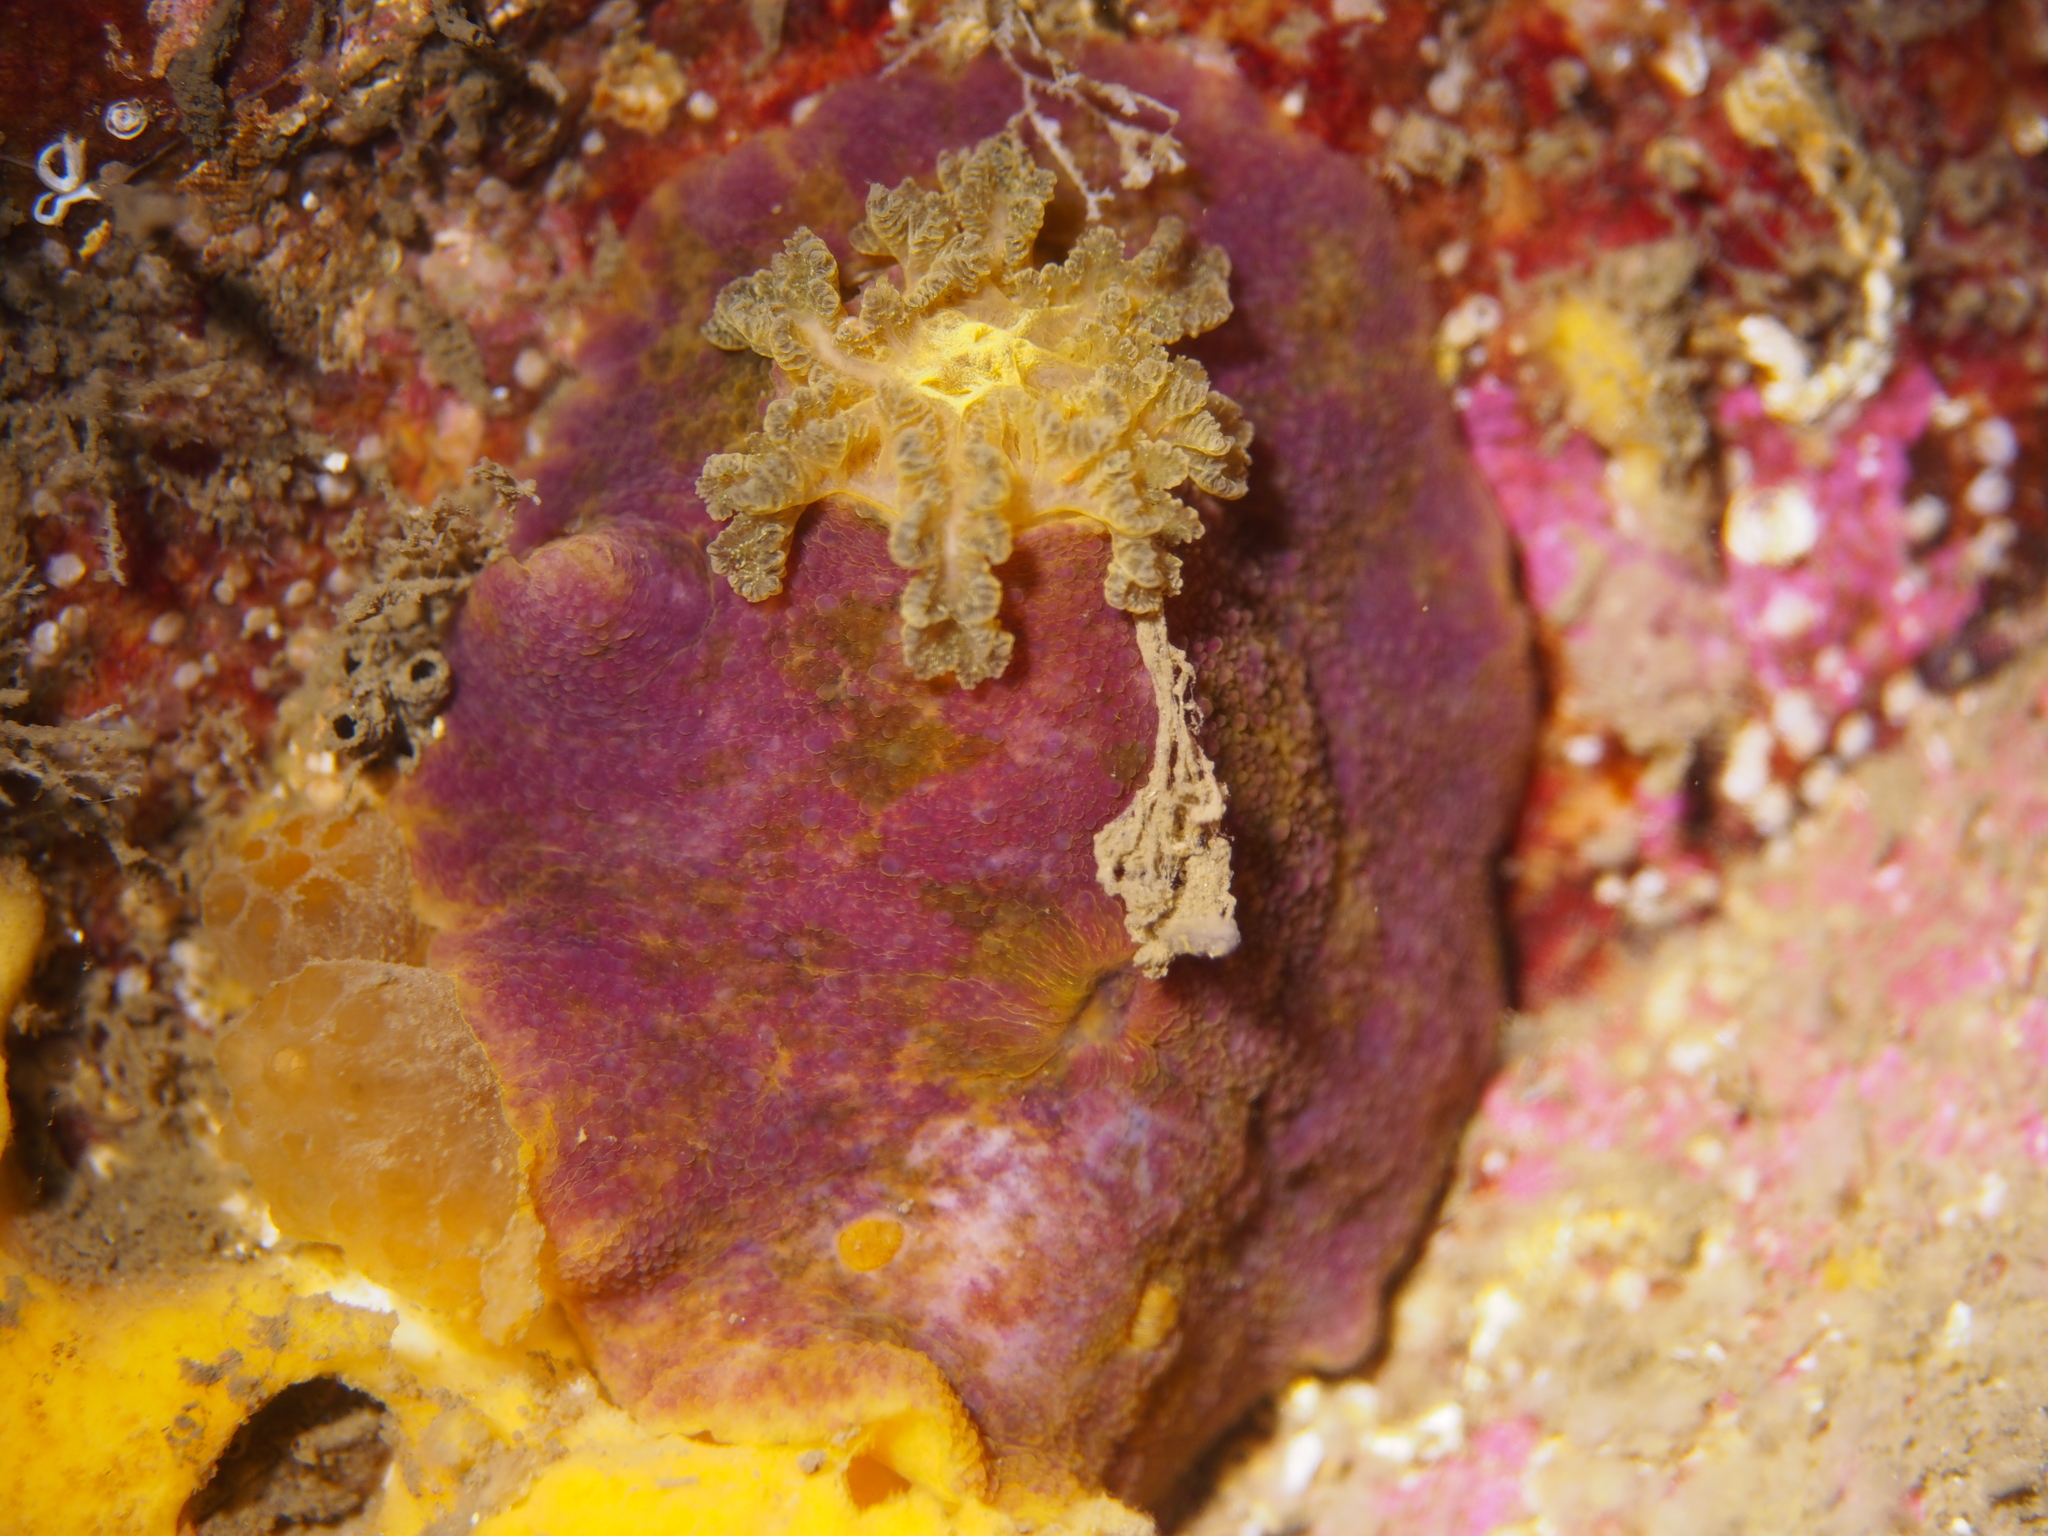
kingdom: Animalia
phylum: Mollusca
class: Gastropoda
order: Nudibranchia
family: Dorididae
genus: Doris
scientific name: Doris pseudoargus
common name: Sea lemon
